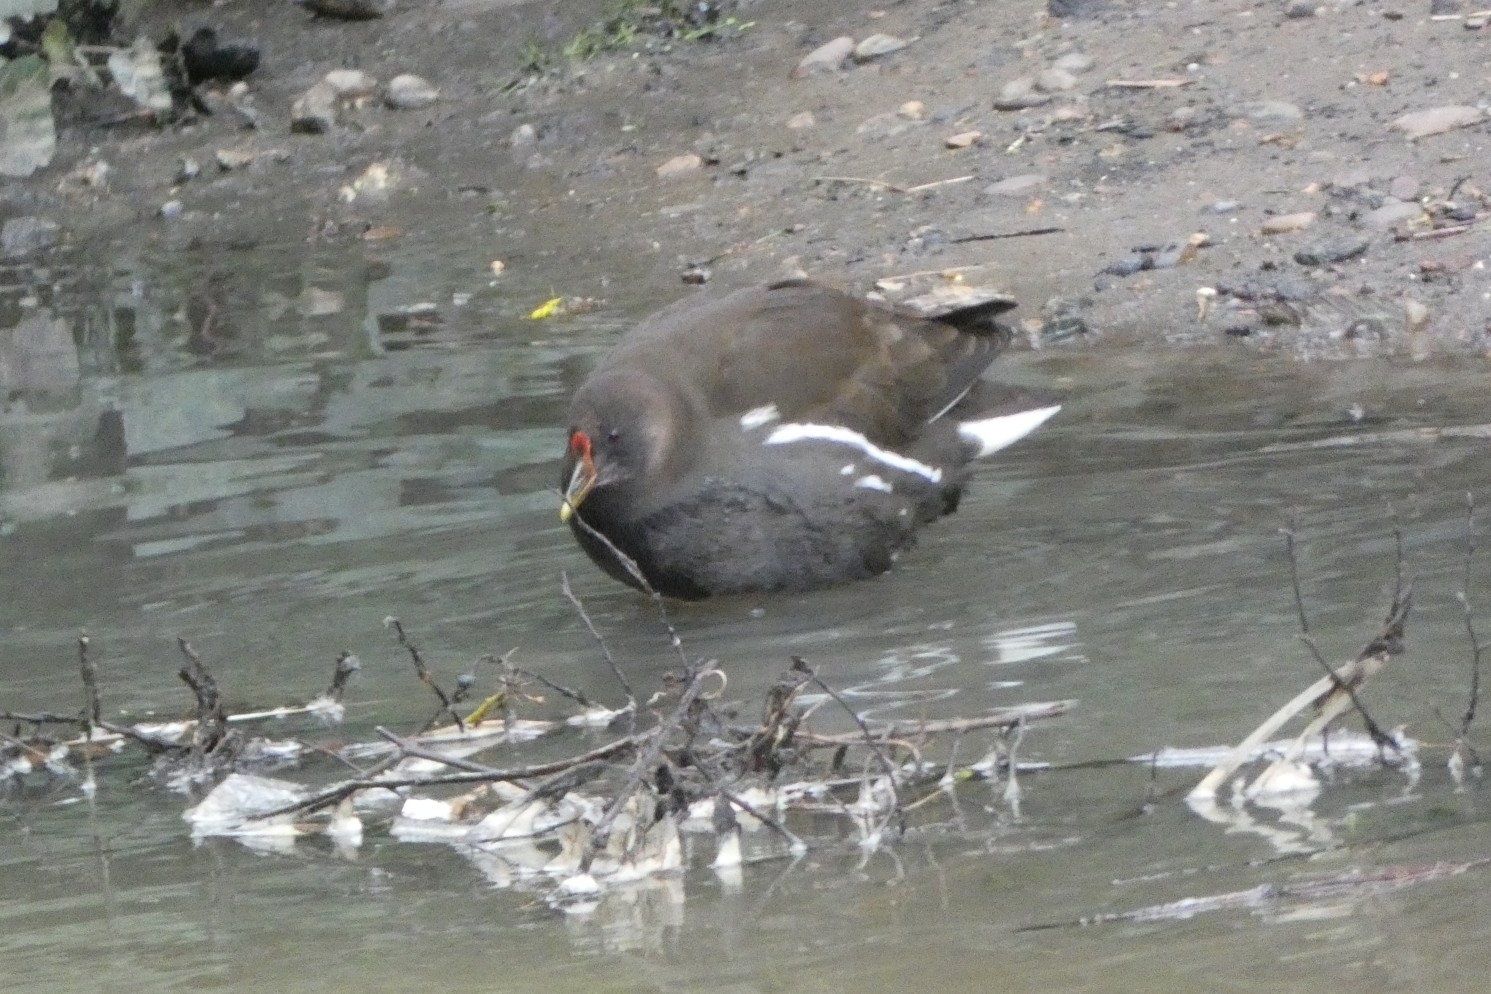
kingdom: Animalia
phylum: Chordata
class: Aves
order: Gruiformes
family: Rallidae
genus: Gallinula
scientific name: Gallinula chloropus
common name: Common moorhen
